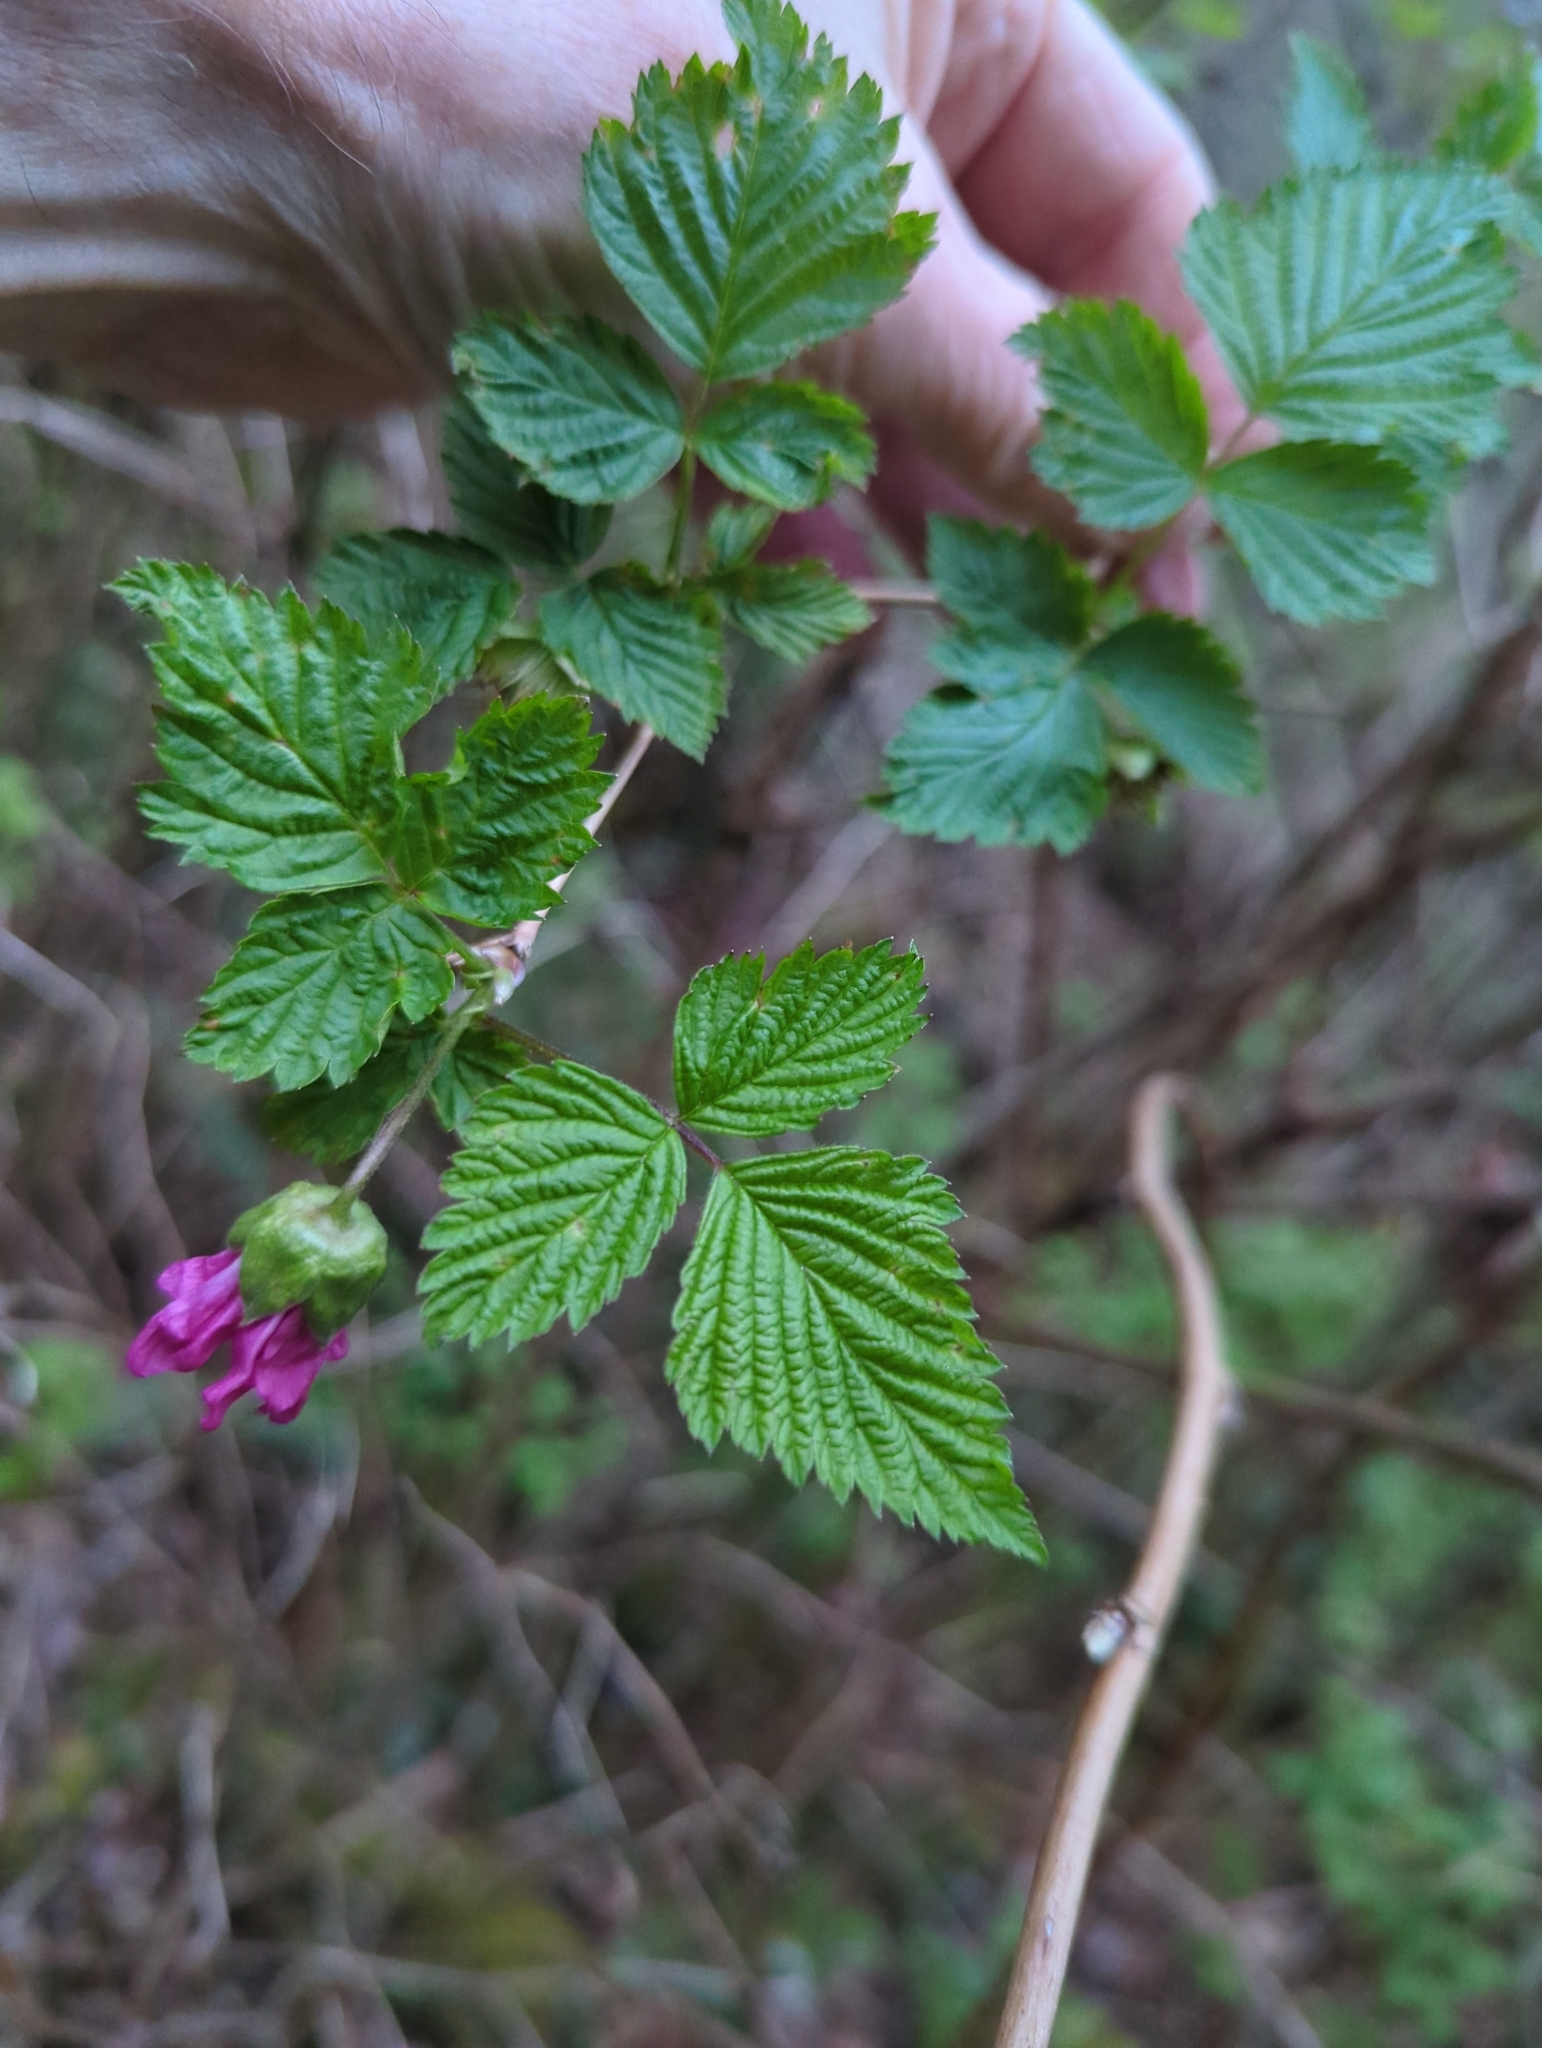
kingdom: Plantae
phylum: Tracheophyta
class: Magnoliopsida
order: Rosales
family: Rosaceae
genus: Rubus
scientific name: Rubus spectabilis
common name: Salmonberry
